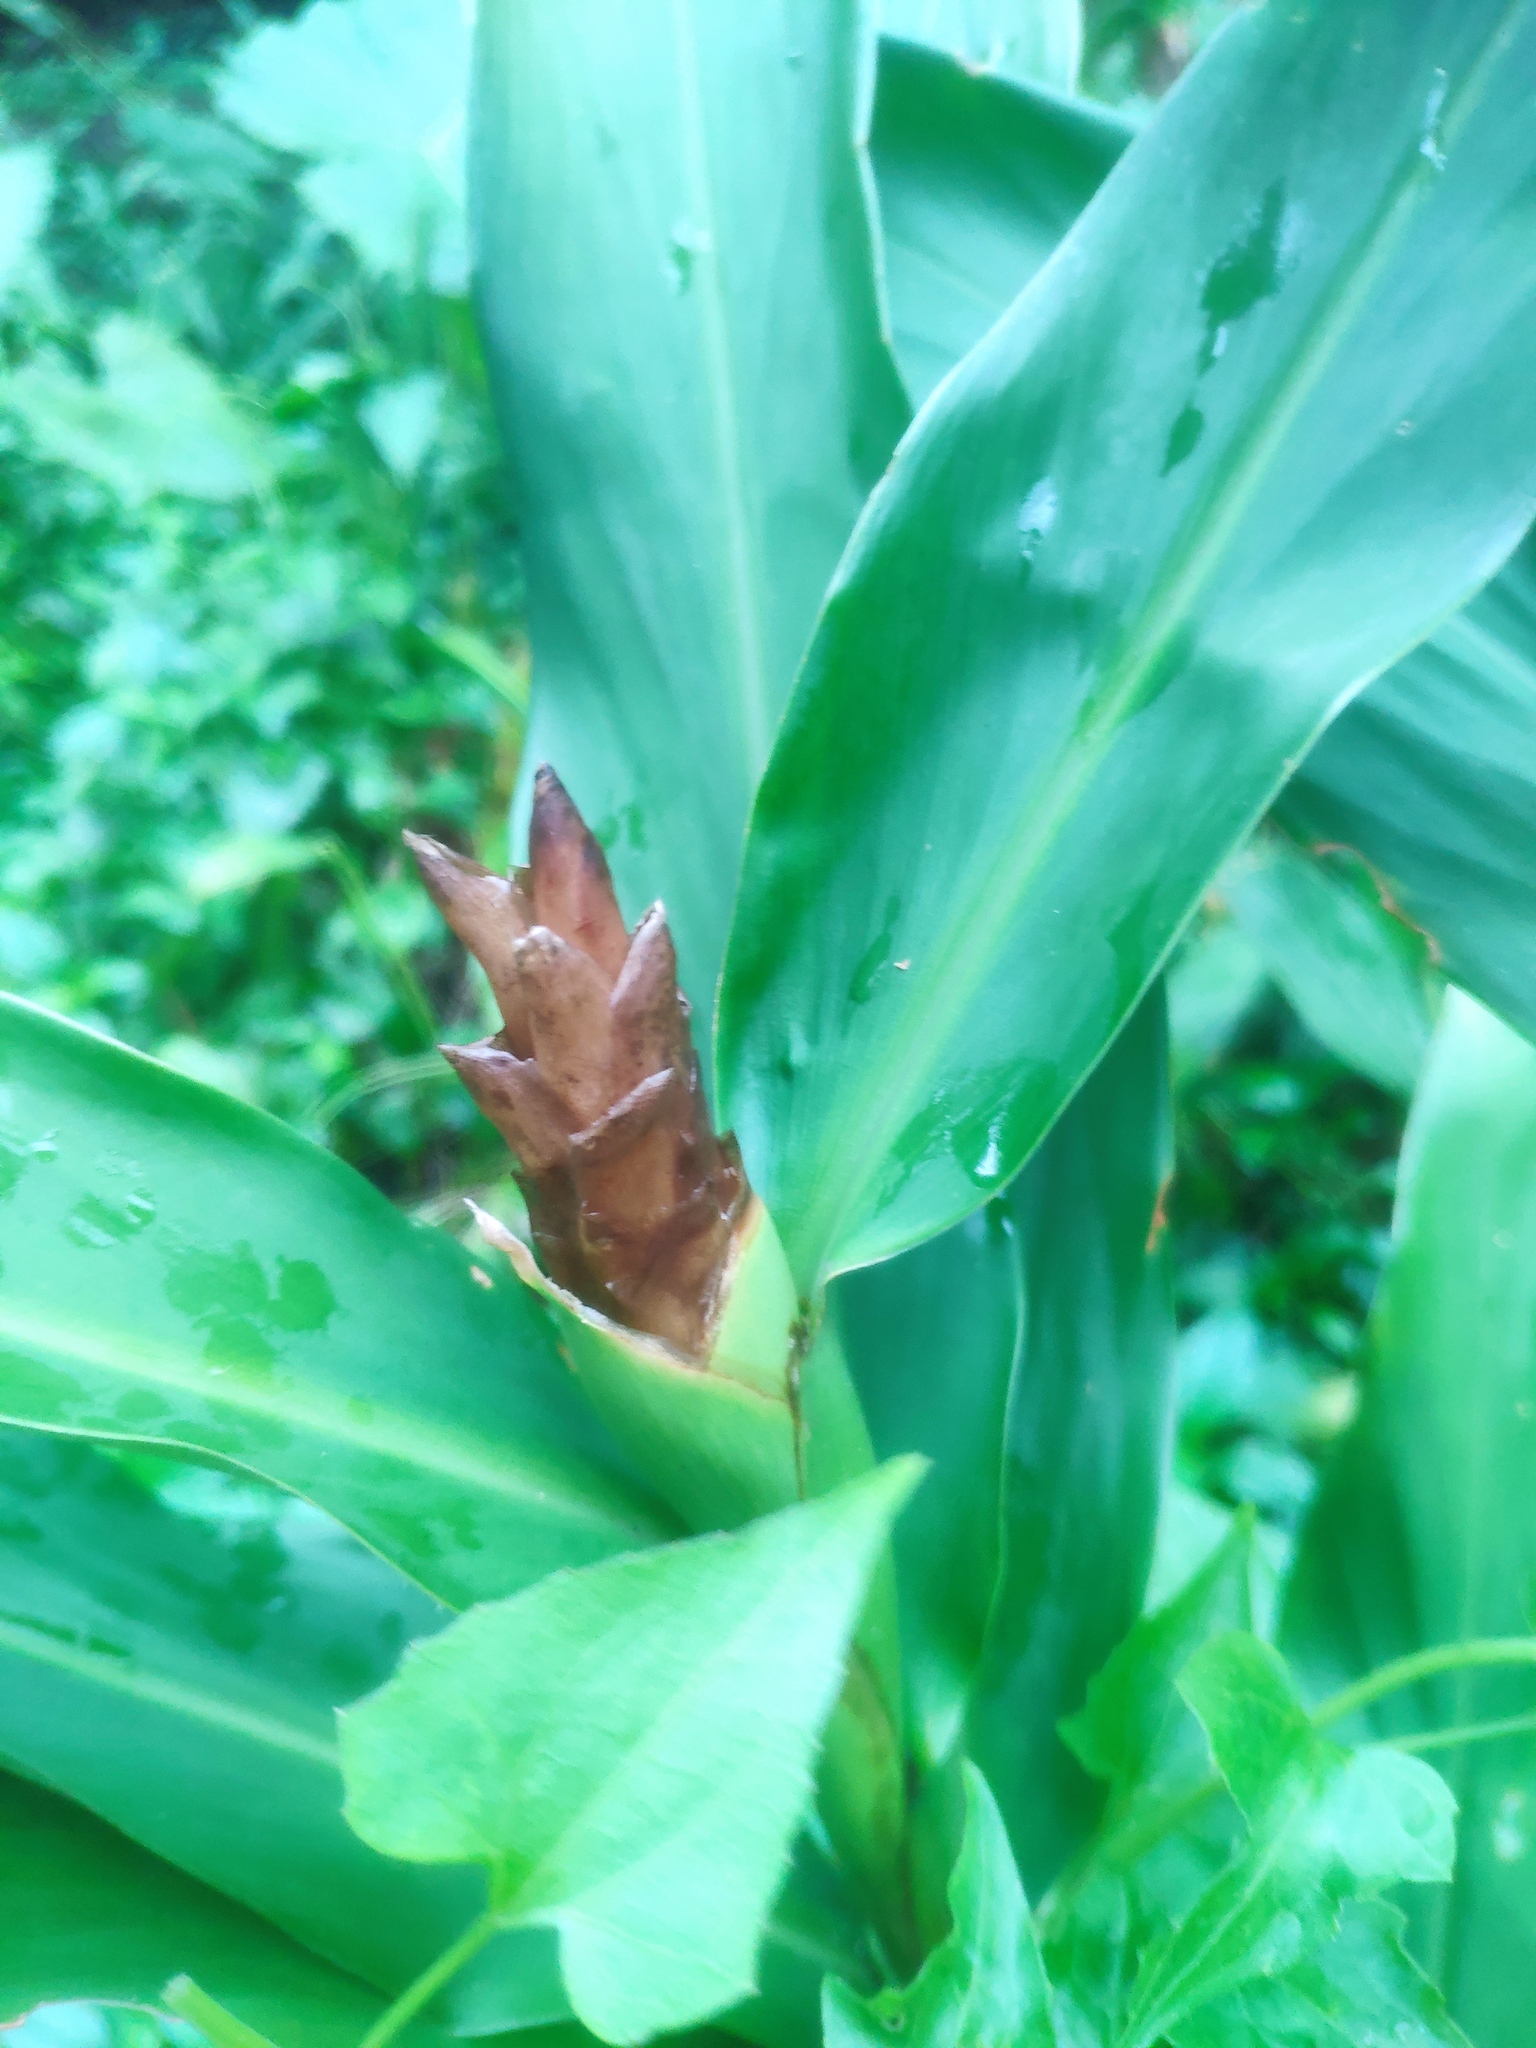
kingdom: Plantae
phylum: Tracheophyta
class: Liliopsida
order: Zingiberales
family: Zingiberaceae
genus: Hedychium
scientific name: Hedychium coronarium
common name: White garland-lily
